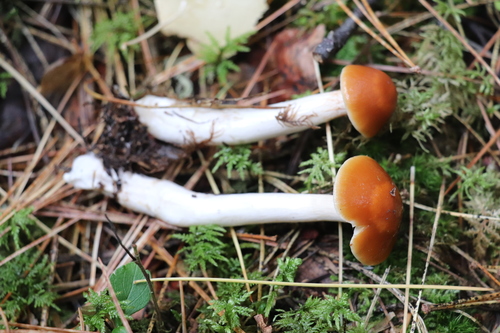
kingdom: Fungi
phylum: Basidiomycota
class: Agaricomycetes
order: Agaricales
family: Cortinariaceae
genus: Thaxterogaster
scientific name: Thaxterogaster vibratilis
